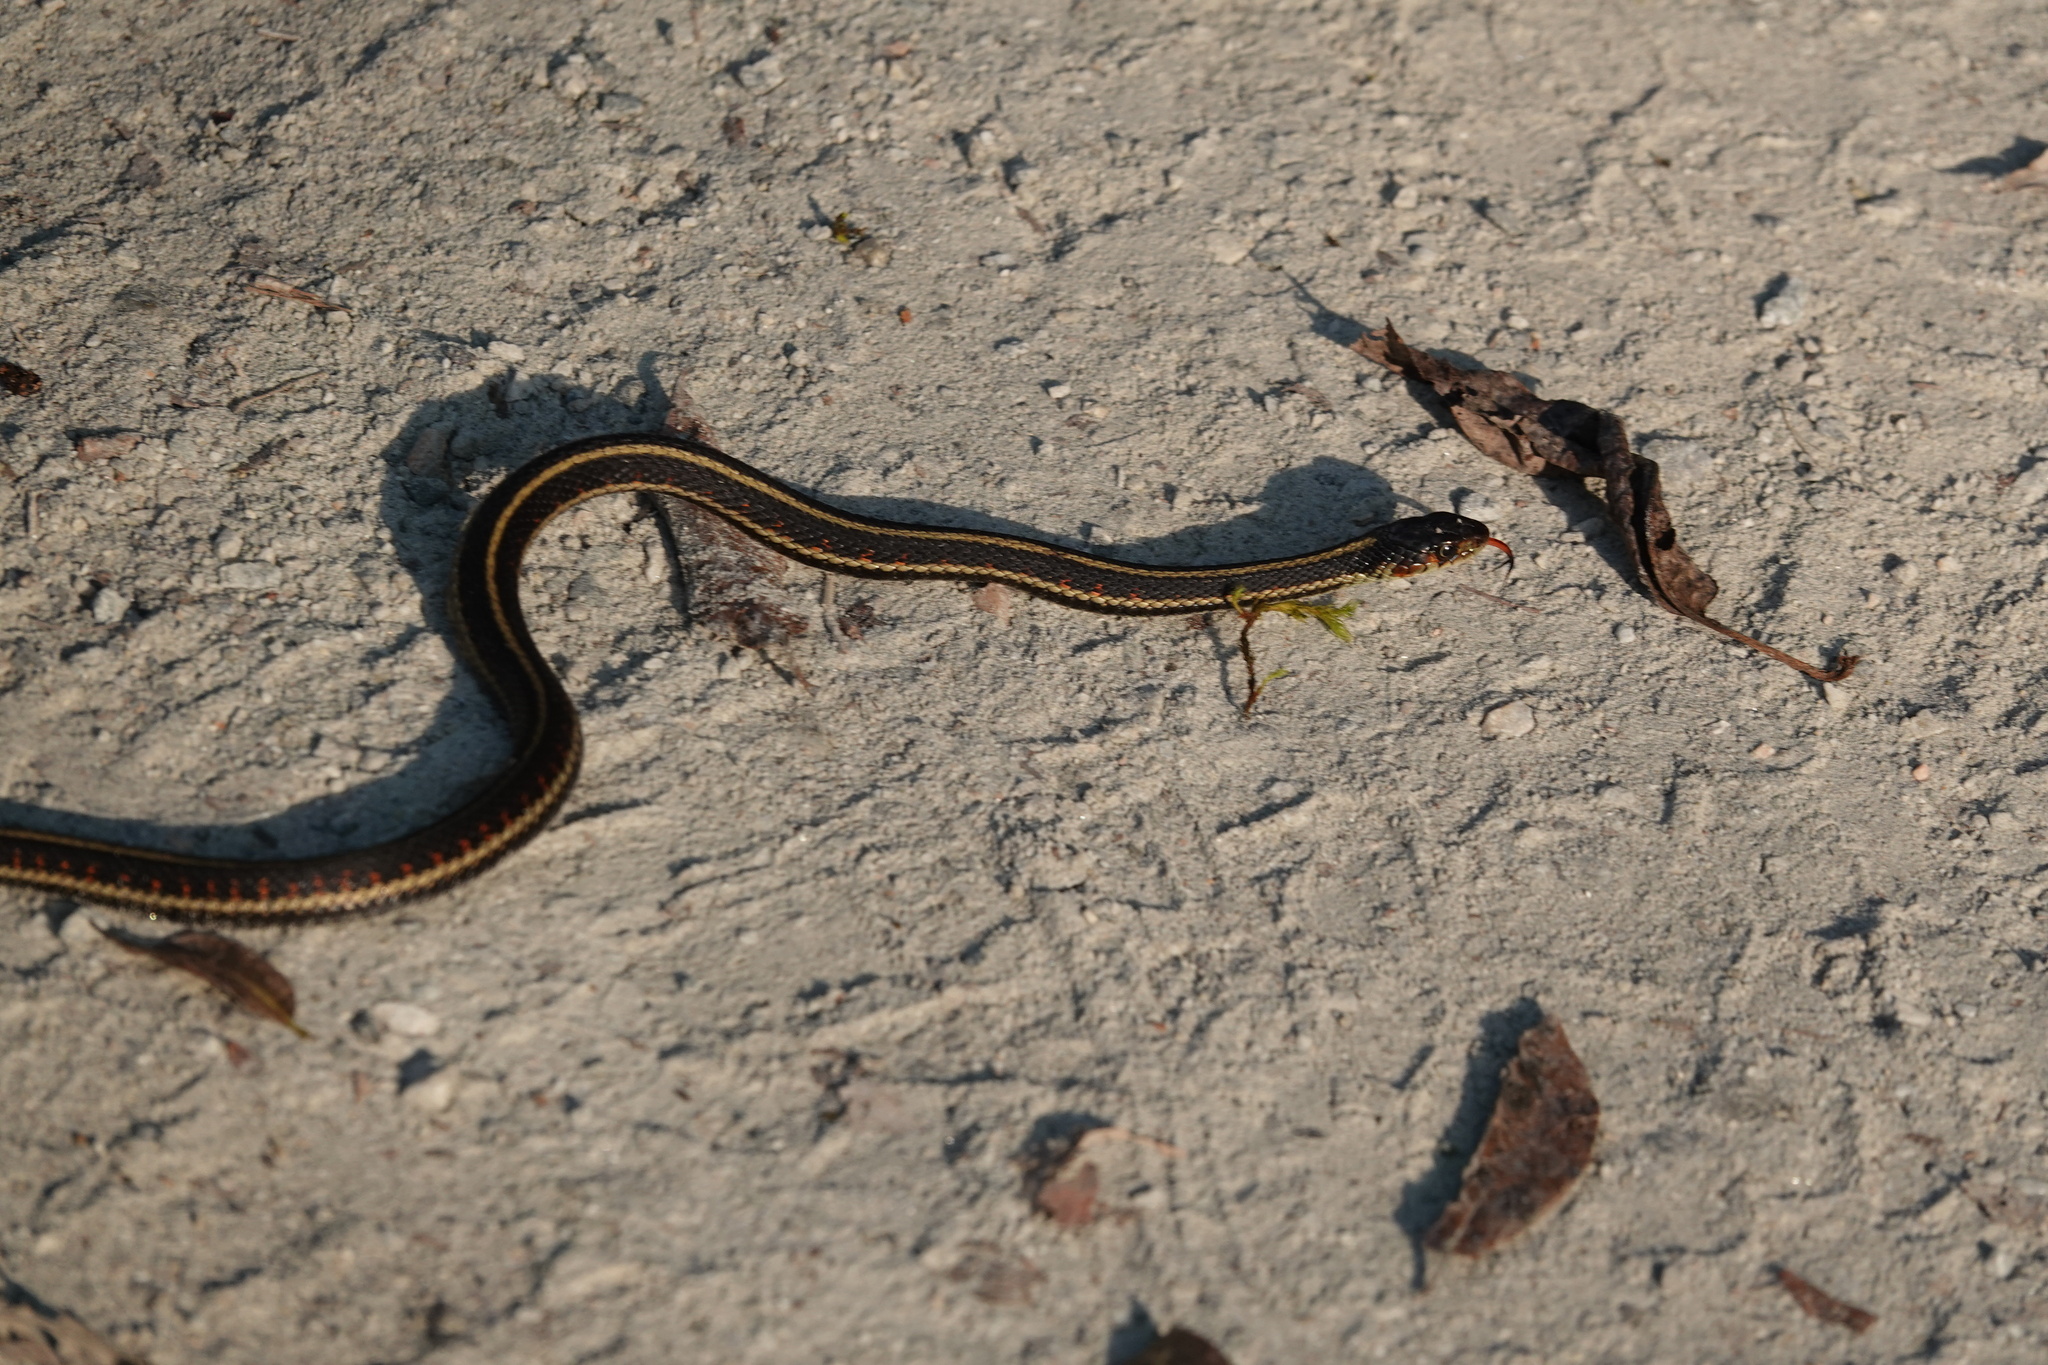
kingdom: Animalia
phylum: Chordata
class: Squamata
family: Colubridae
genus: Thamnophis
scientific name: Thamnophis sirtalis
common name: Common garter snake
